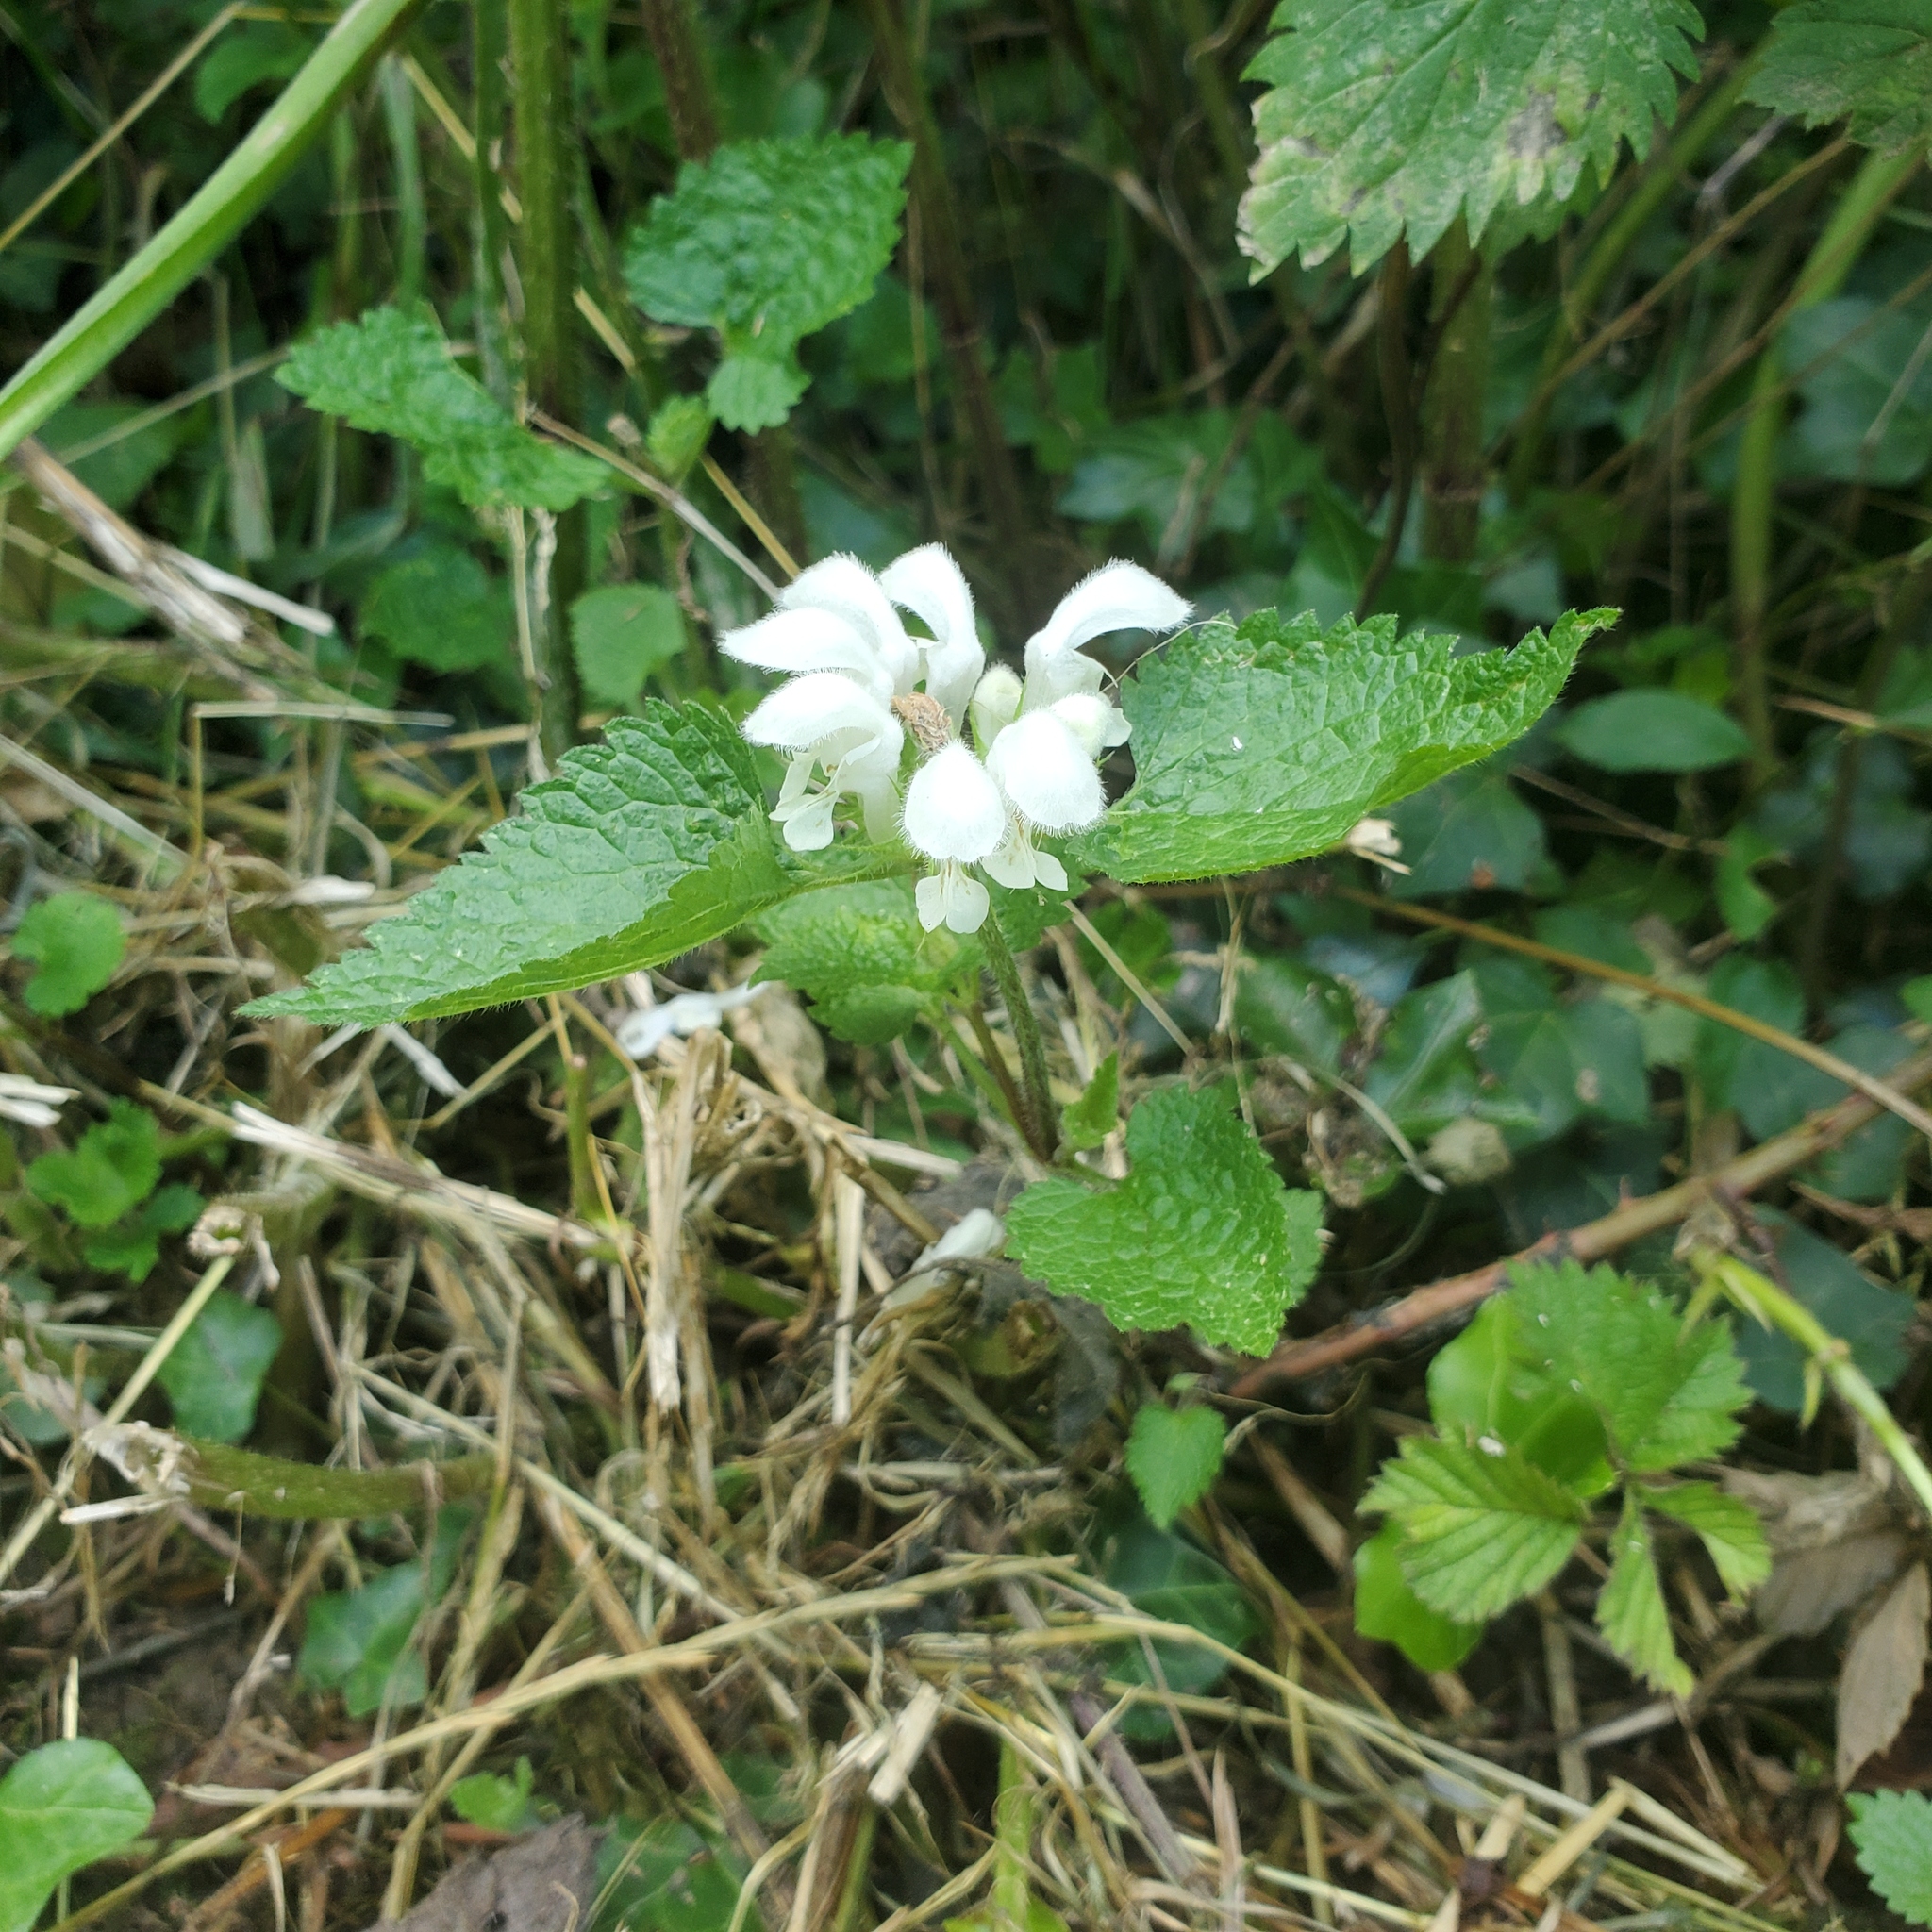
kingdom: Plantae
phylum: Tracheophyta
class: Magnoliopsida
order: Lamiales
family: Lamiaceae
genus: Lamium
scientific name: Lamium album
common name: White dead-nettle
